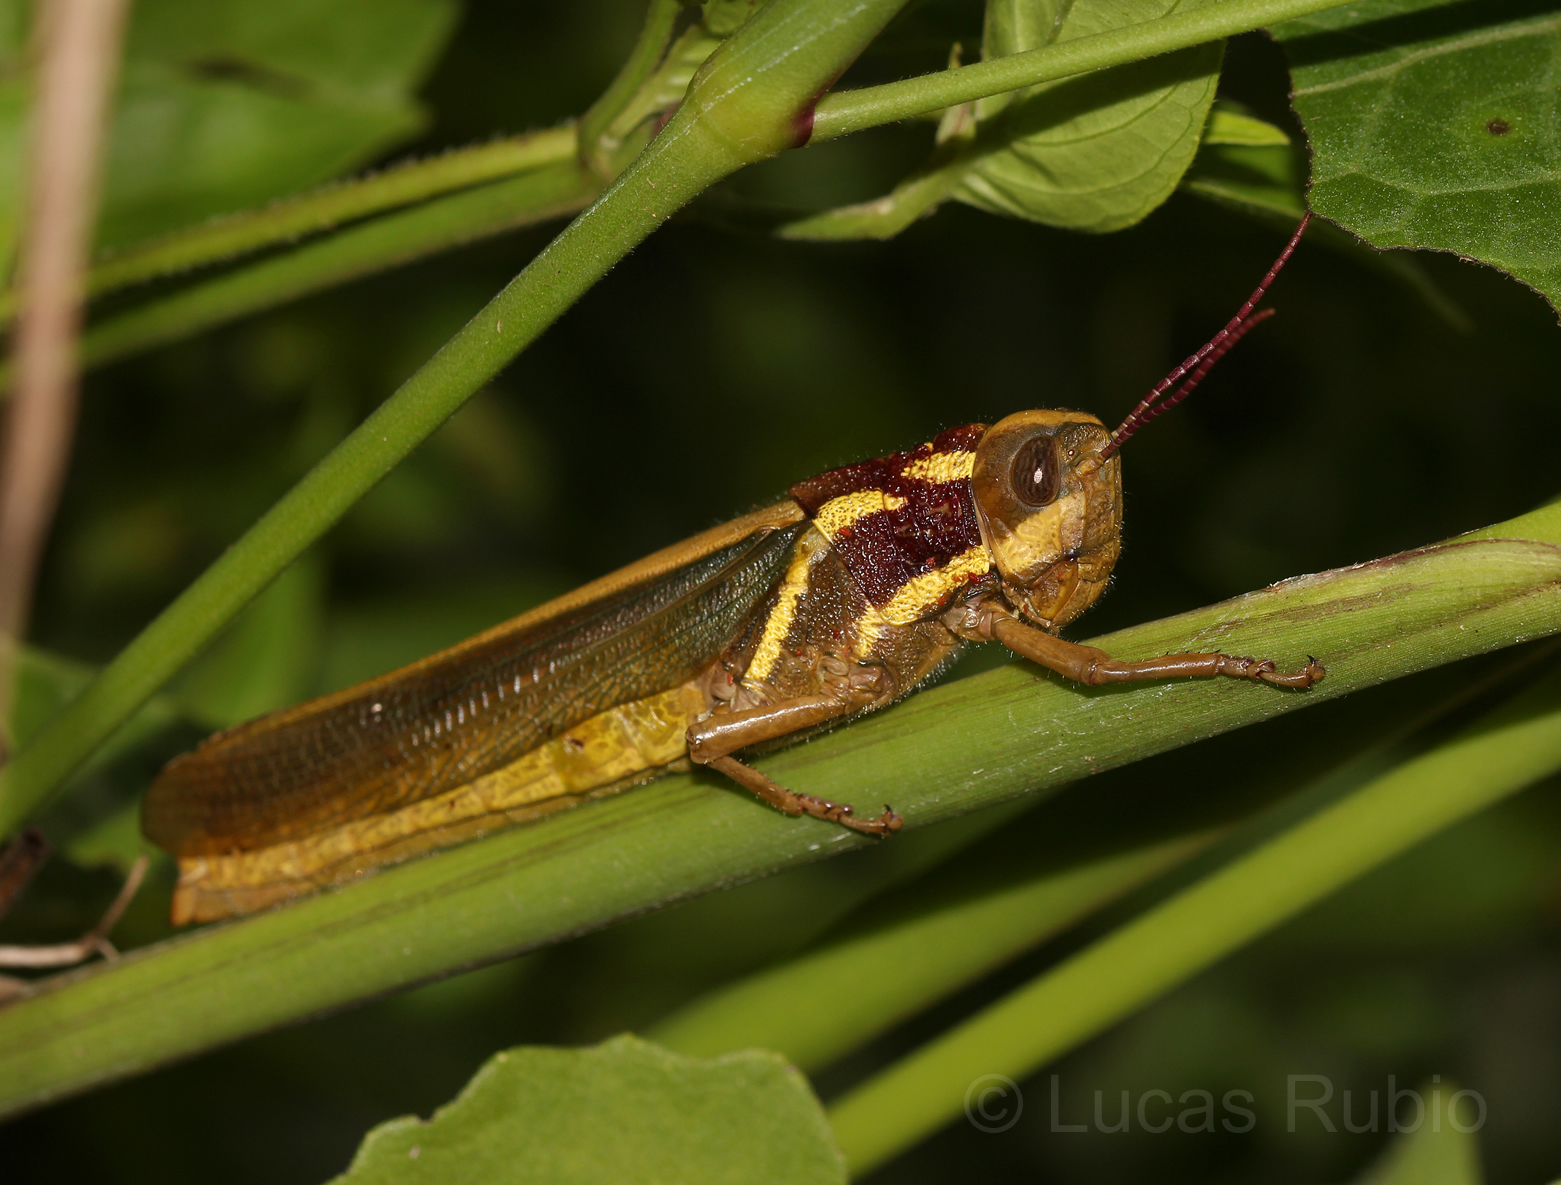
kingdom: Animalia
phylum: Arthropoda
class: Insecta
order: Orthoptera
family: Acrididae
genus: Zygoclistron
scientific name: Zygoclistron superbum
